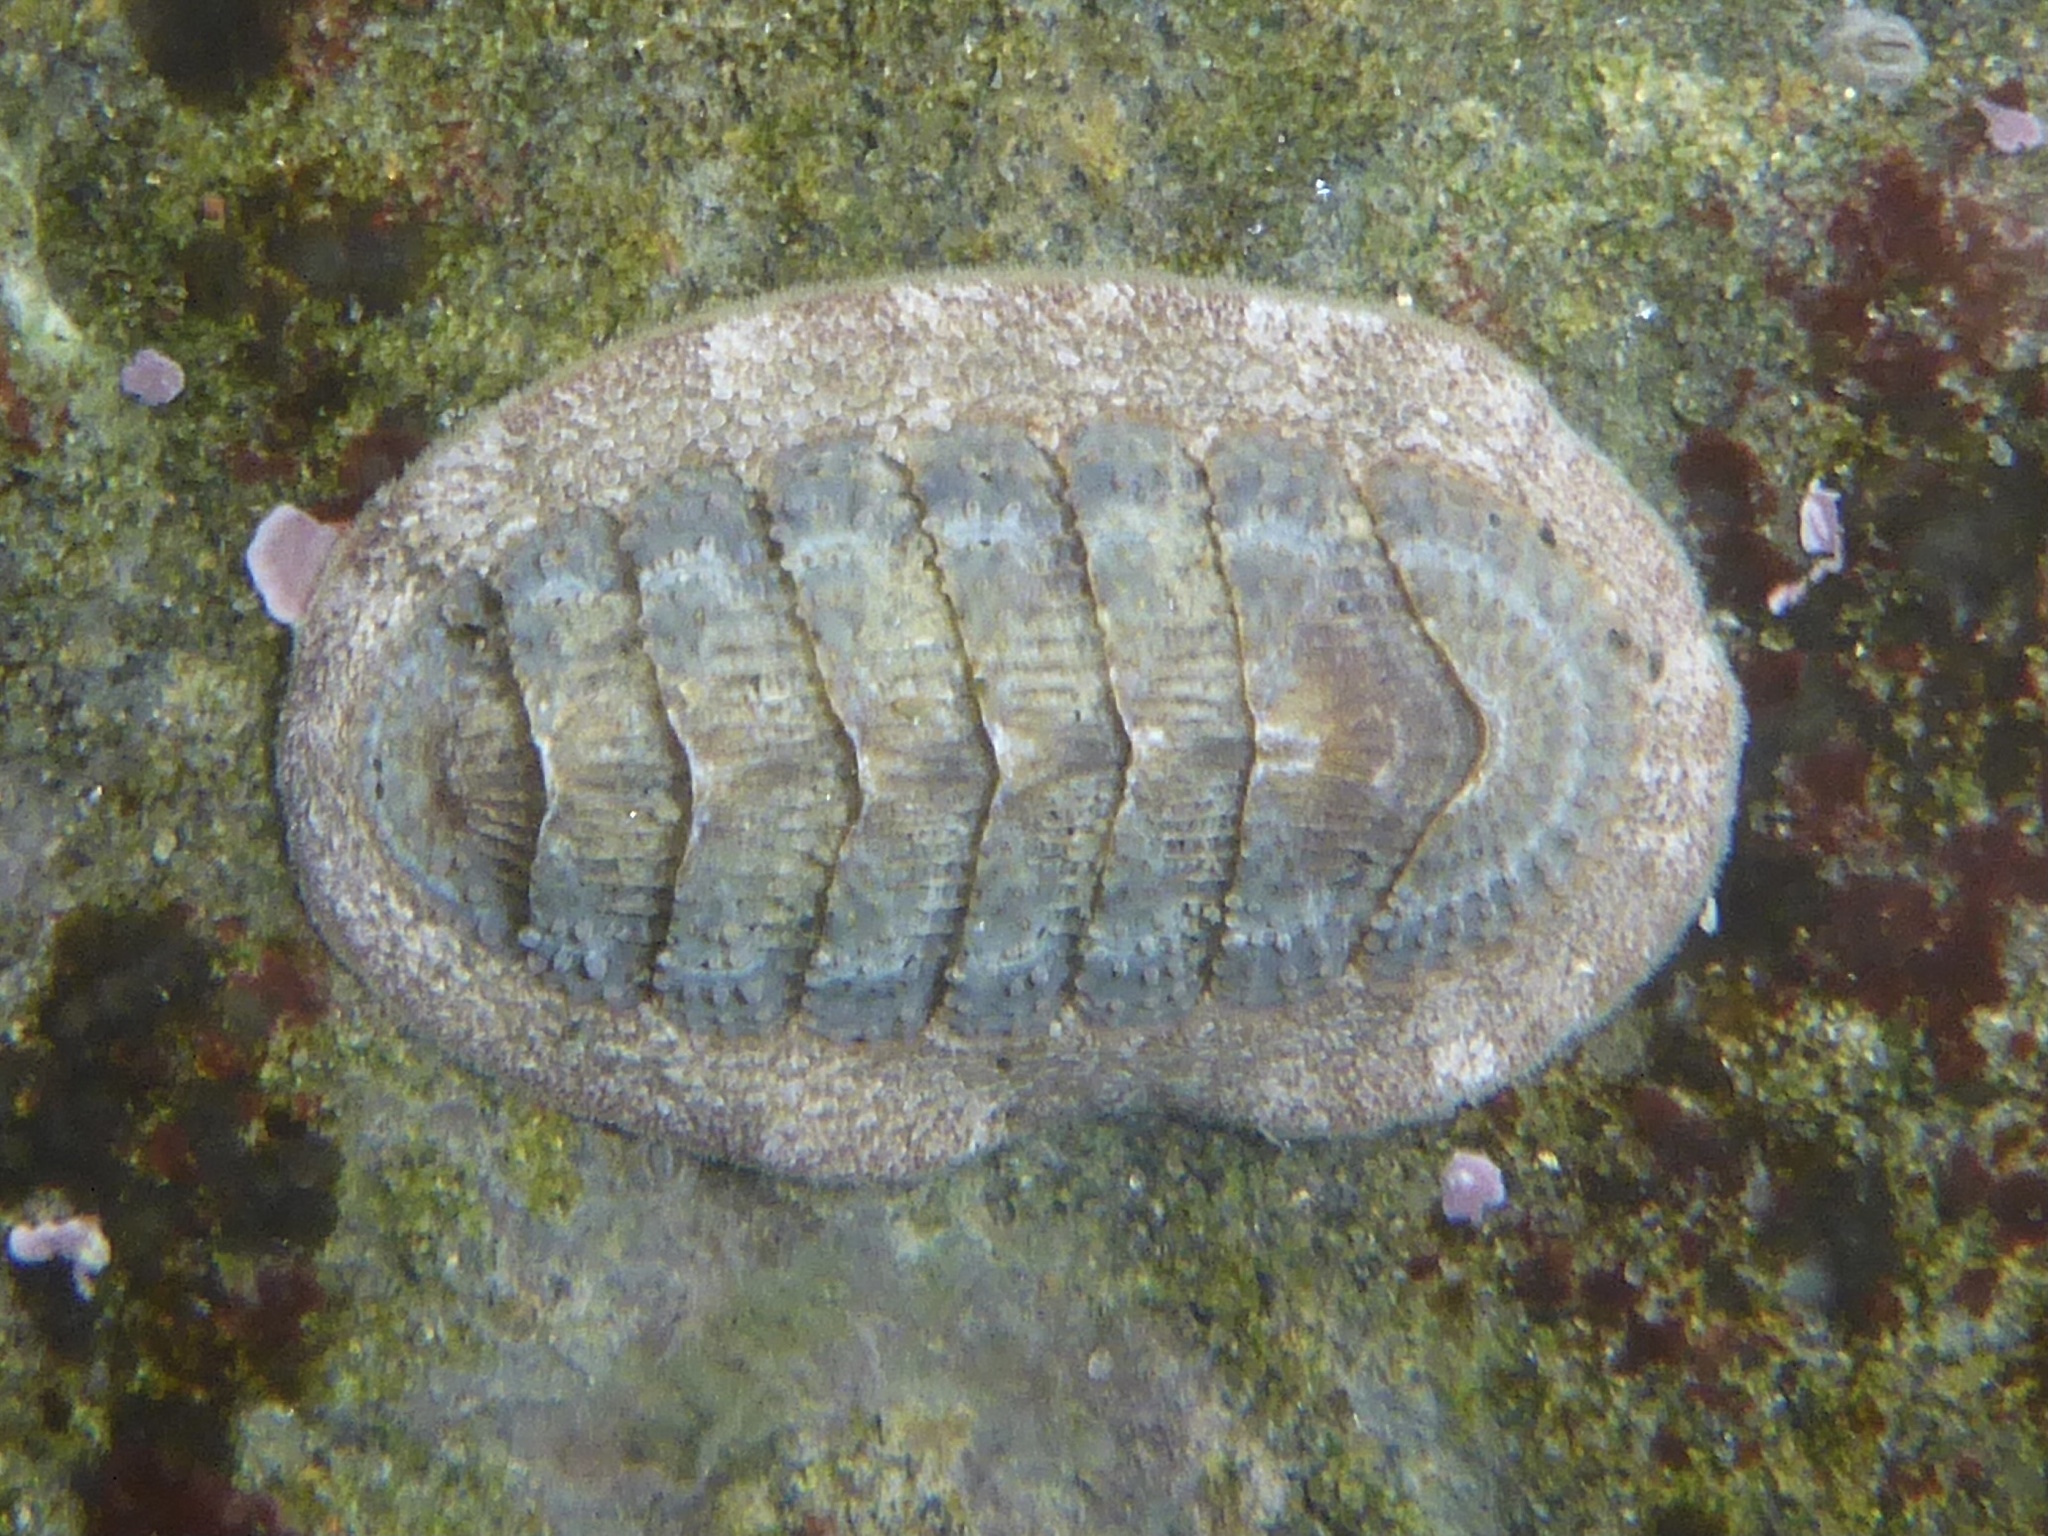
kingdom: Animalia
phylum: Mollusca
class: Polyplacophora
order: Chitonida
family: Ischnochitonidae
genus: Lepidozona
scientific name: Lepidozona cooperi
